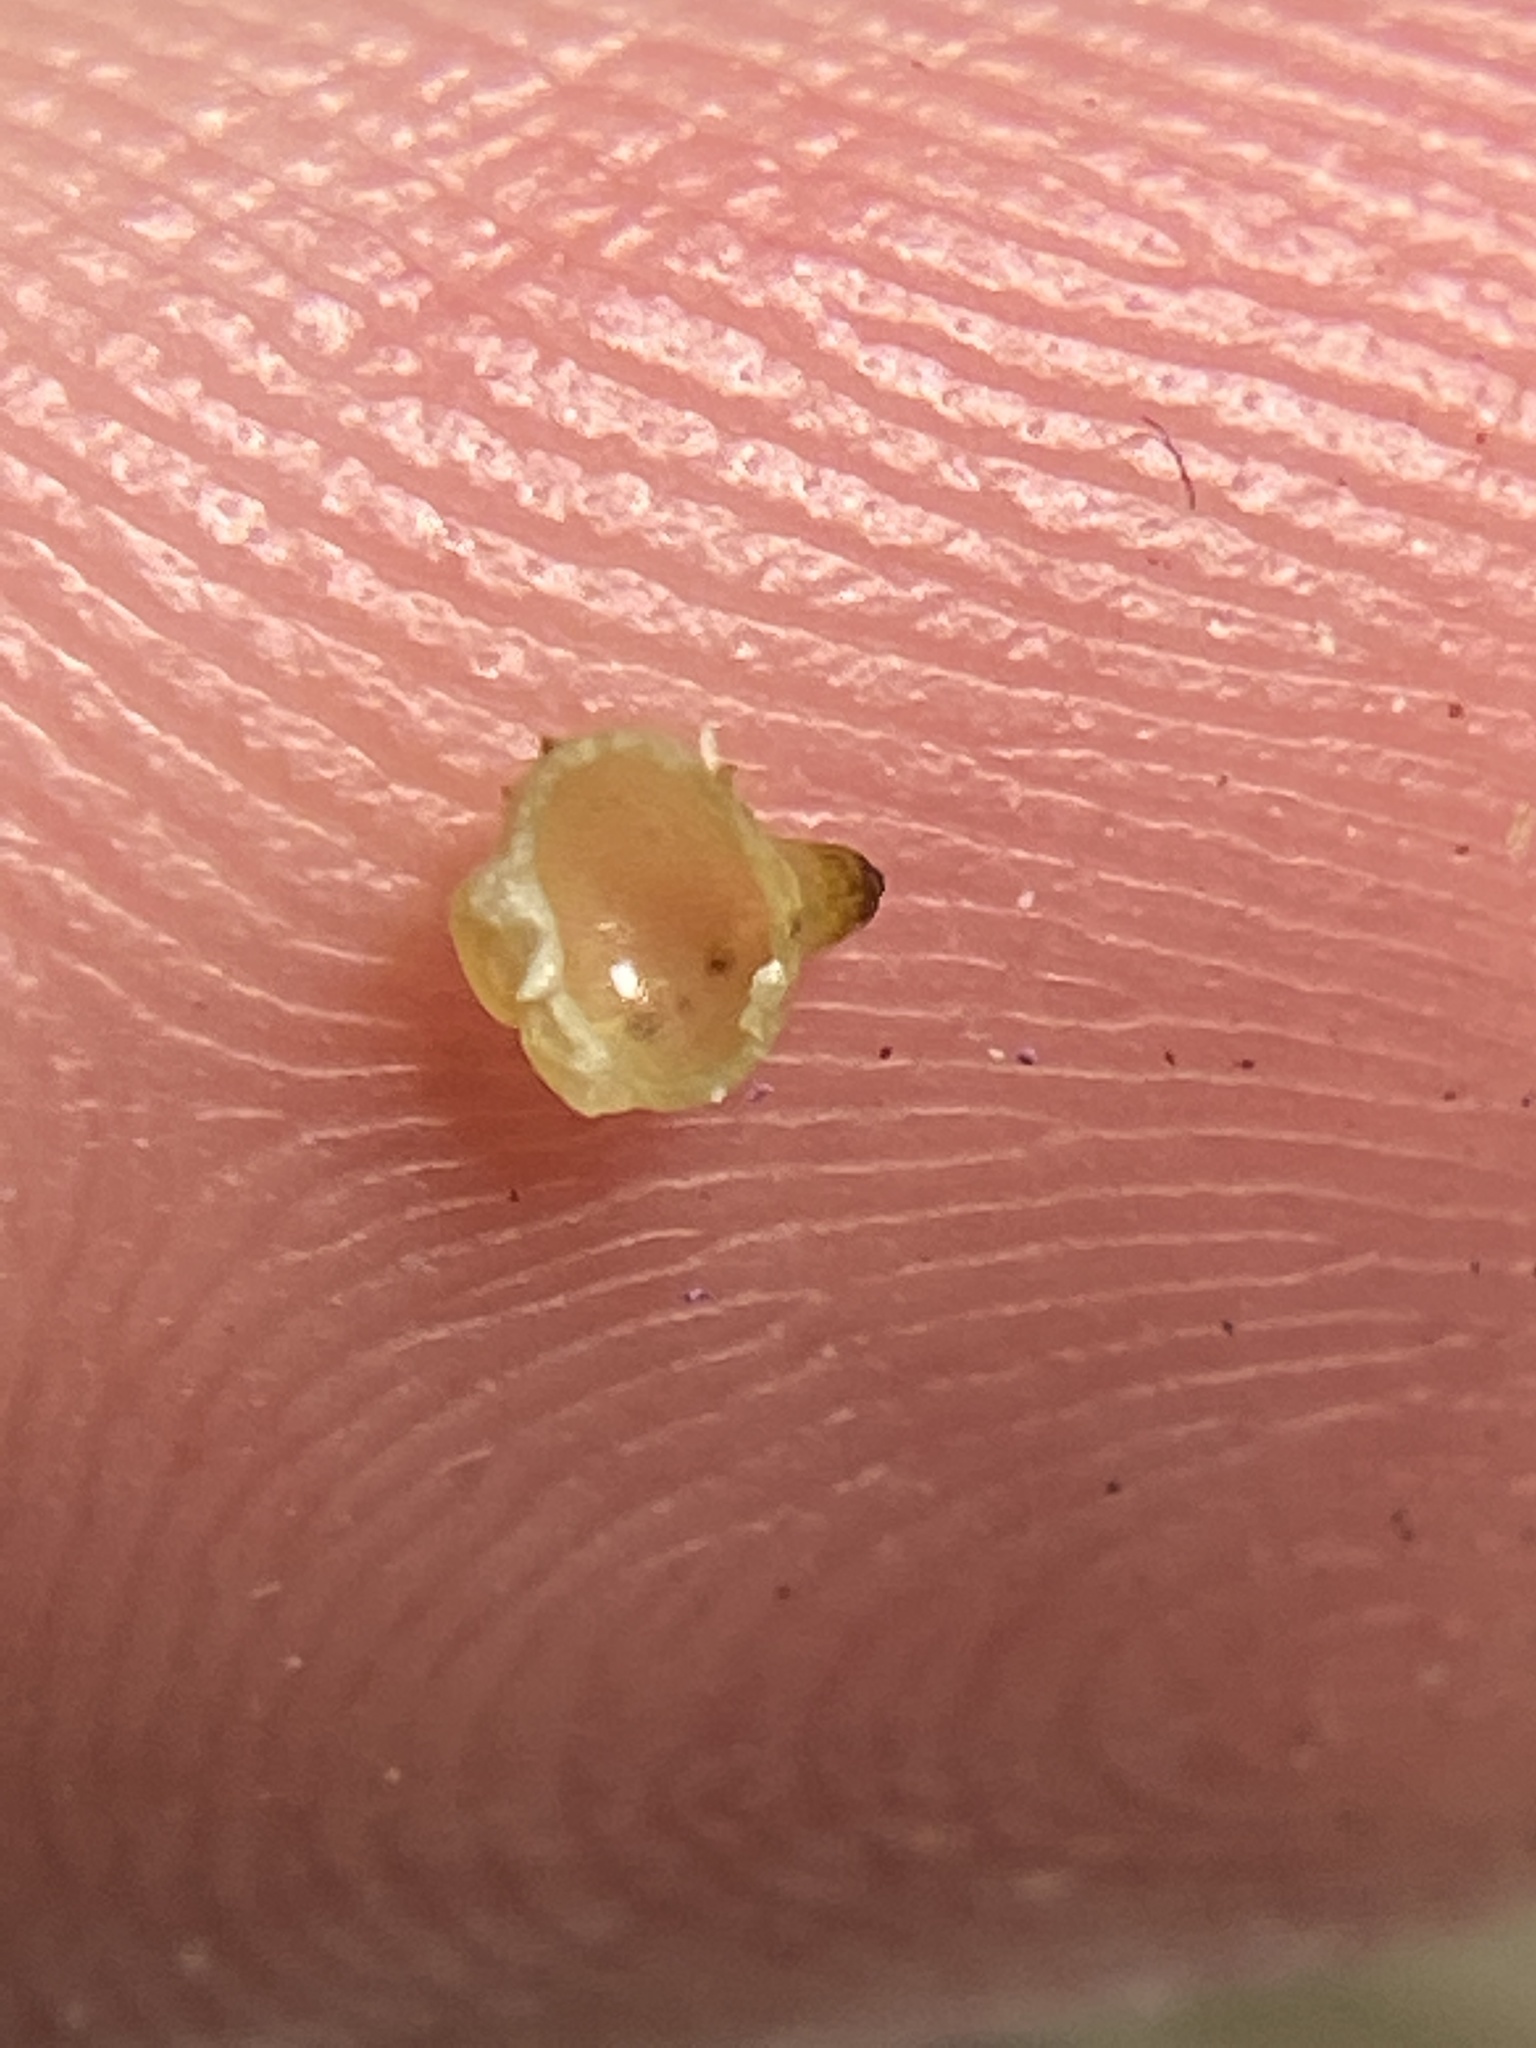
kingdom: Animalia
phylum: Arthropoda
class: Insecta
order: Diptera
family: Cecidomyiidae
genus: Caryomyia
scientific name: Caryomyia shmoo
